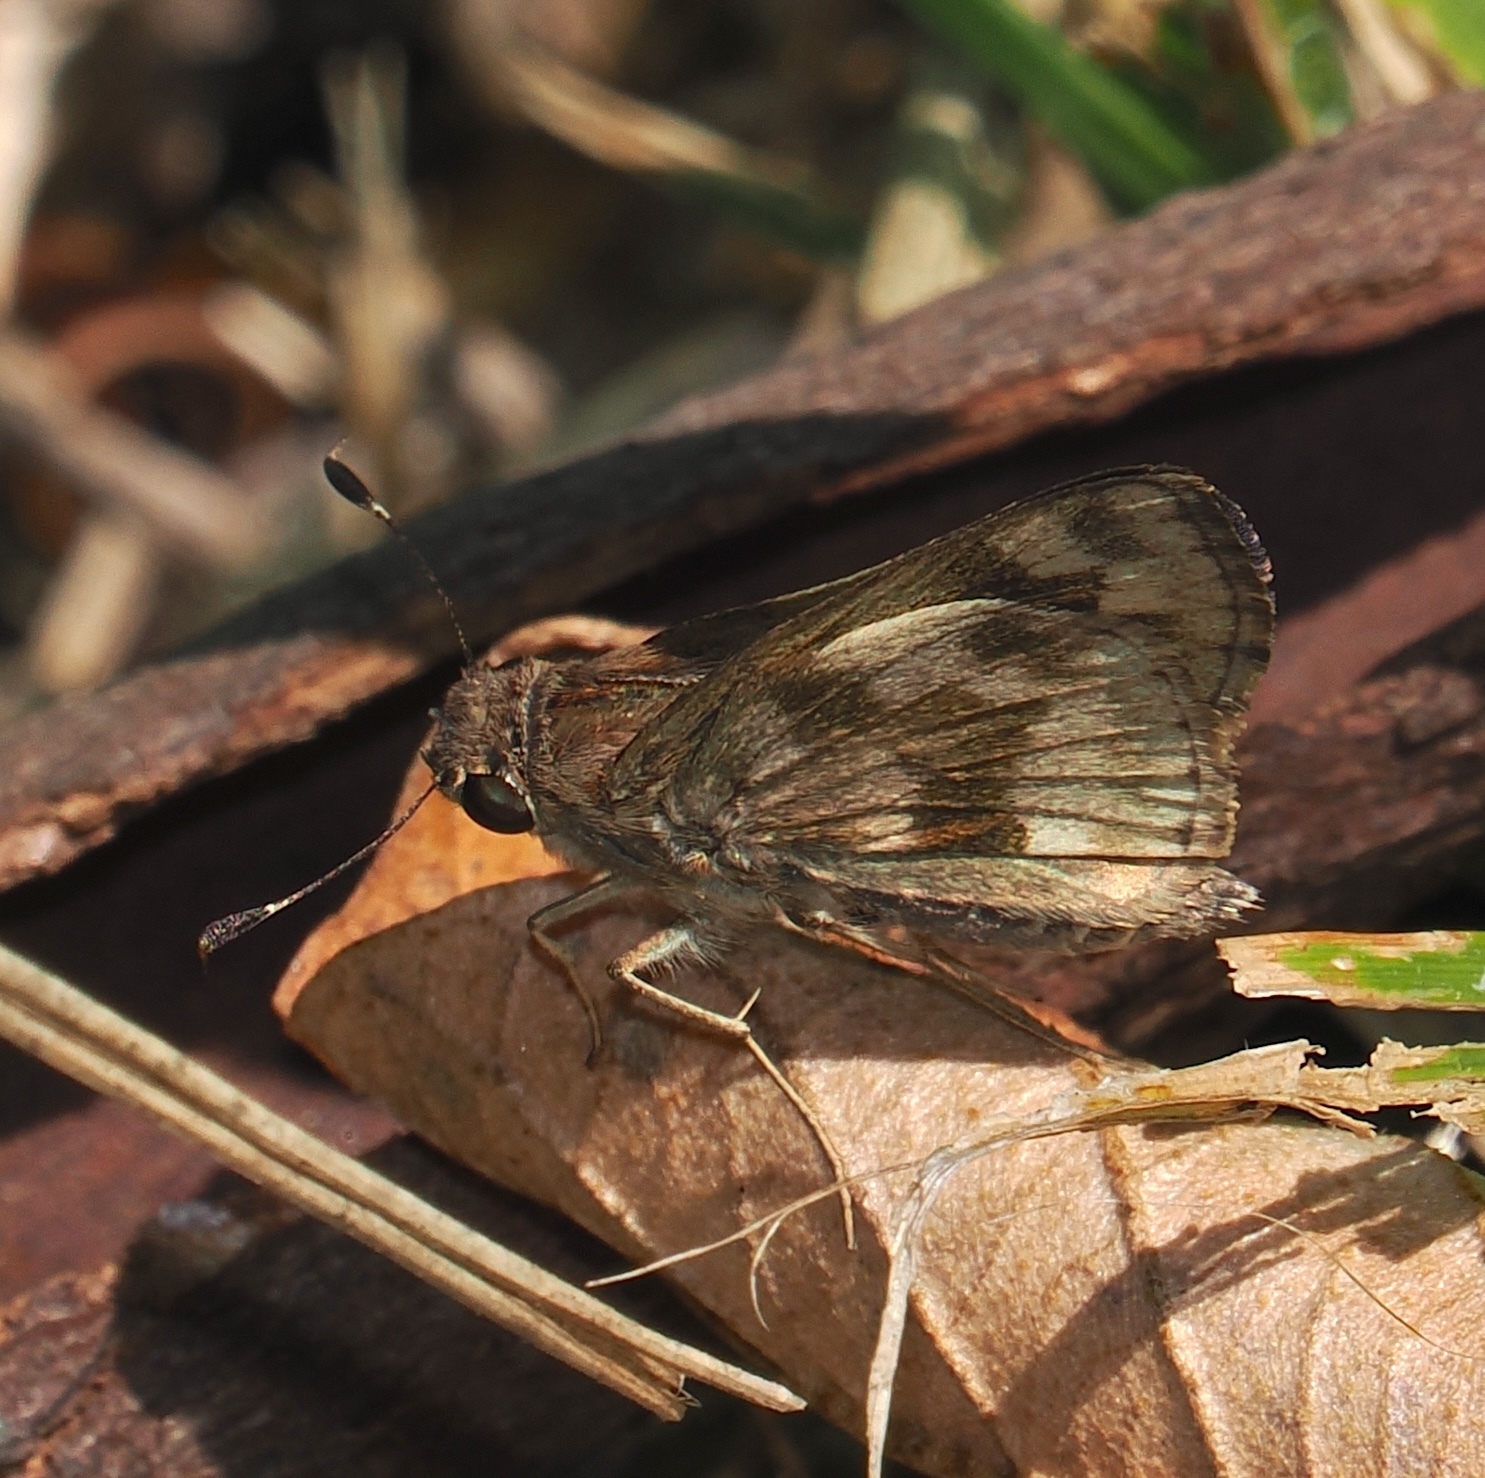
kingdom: Animalia
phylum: Arthropoda
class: Insecta
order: Lepidoptera
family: Hesperiidae
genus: Pompeius
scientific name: Pompeius pompeius
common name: Pompeius skipper
